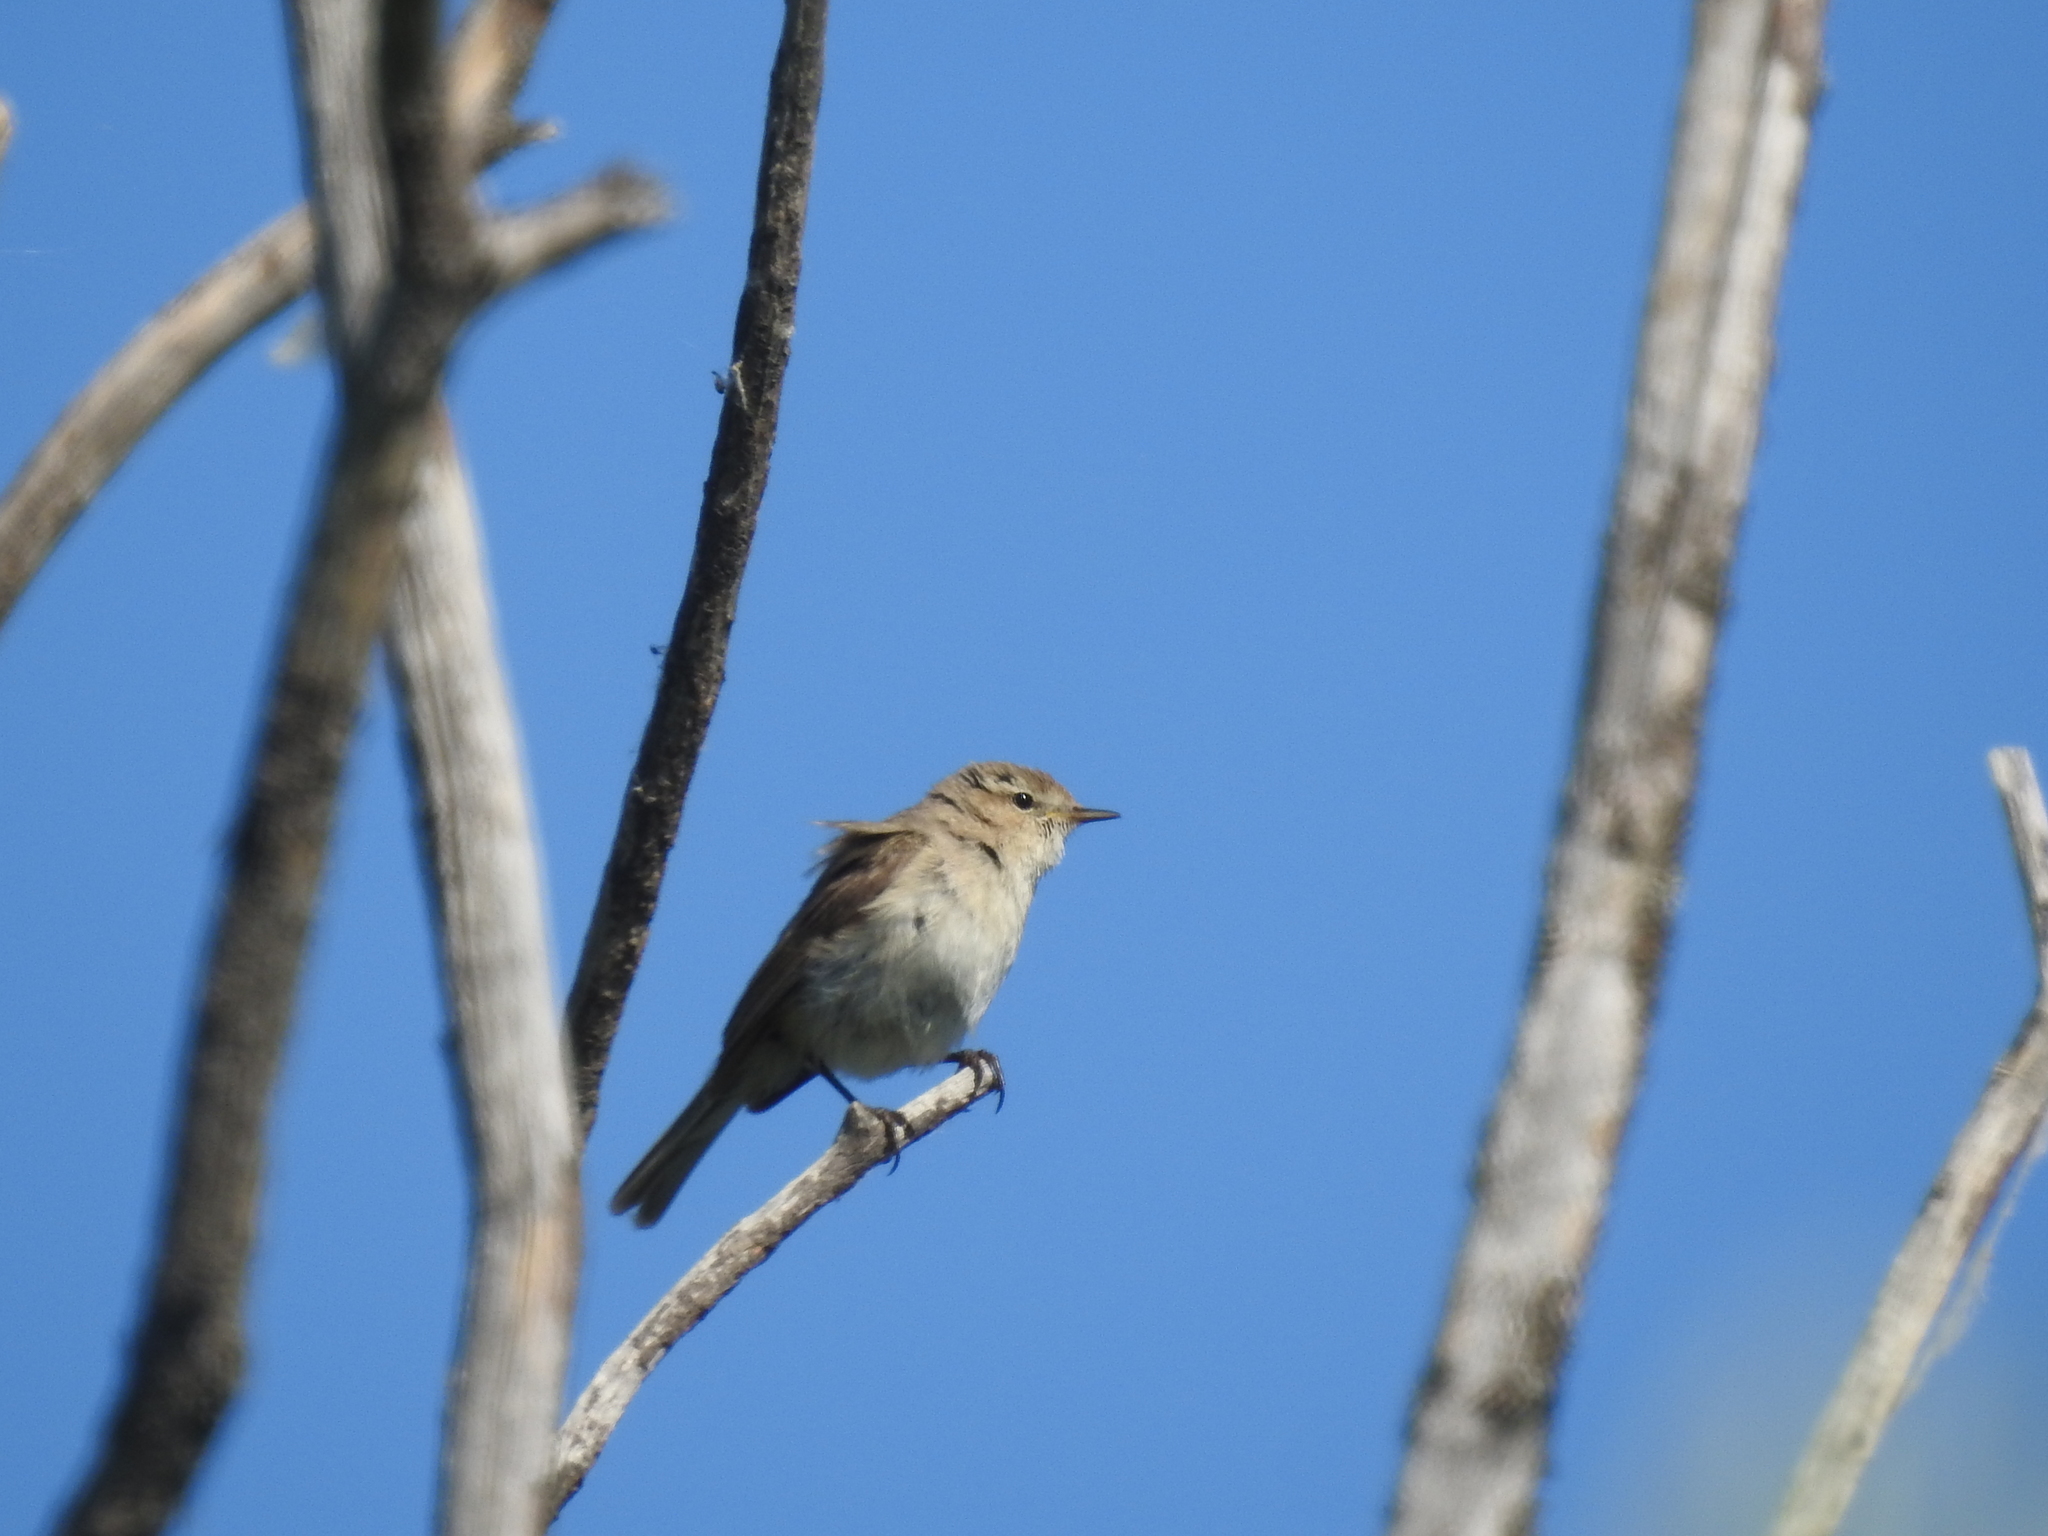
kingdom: Animalia
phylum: Chordata
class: Aves
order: Passeriformes
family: Phylloscopidae
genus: Phylloscopus
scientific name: Phylloscopus collybita
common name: Common chiffchaff
